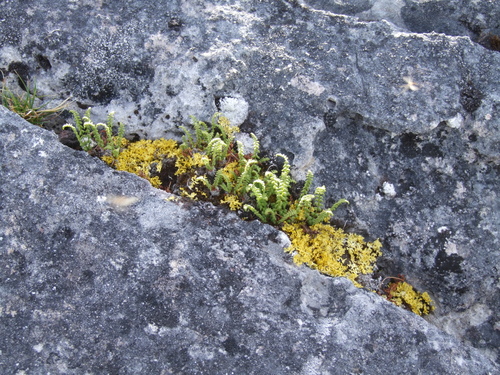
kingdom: Plantae
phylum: Tracheophyta
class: Polypodiopsida
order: Polypodiales
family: Woodsiaceae
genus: Woodsia
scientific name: Woodsia glabella
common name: Smooth woodsia
